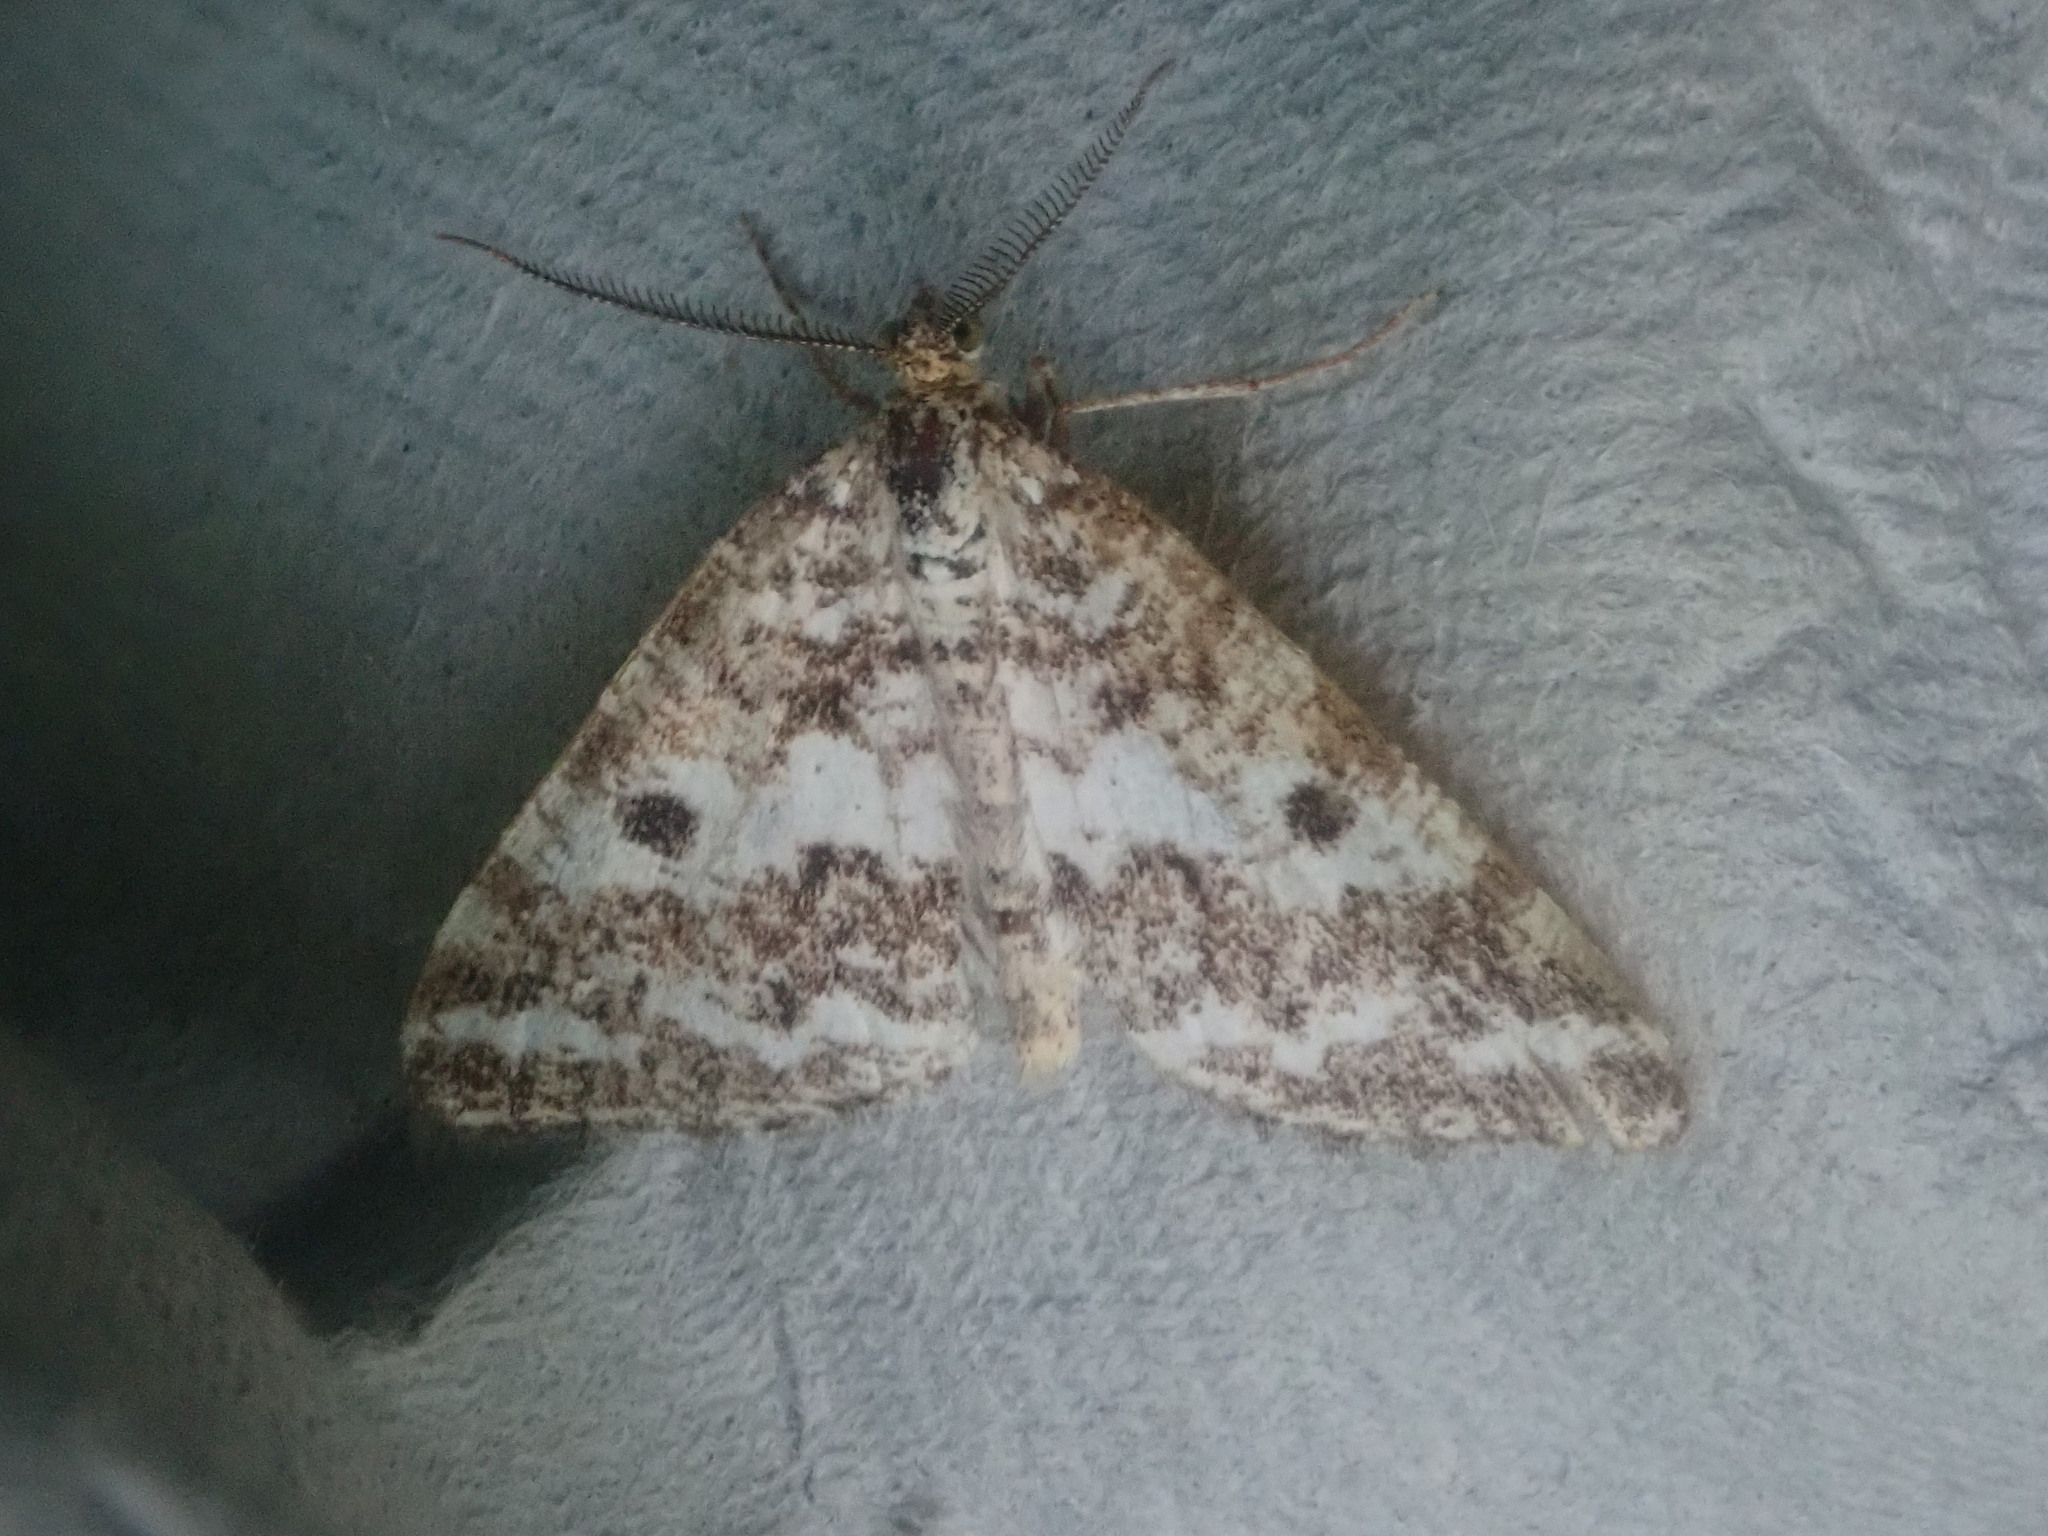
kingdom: Animalia
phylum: Arthropoda
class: Insecta
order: Lepidoptera
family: Geometridae
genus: Eufidonia
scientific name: Eufidonia notataria
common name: Powder moth
